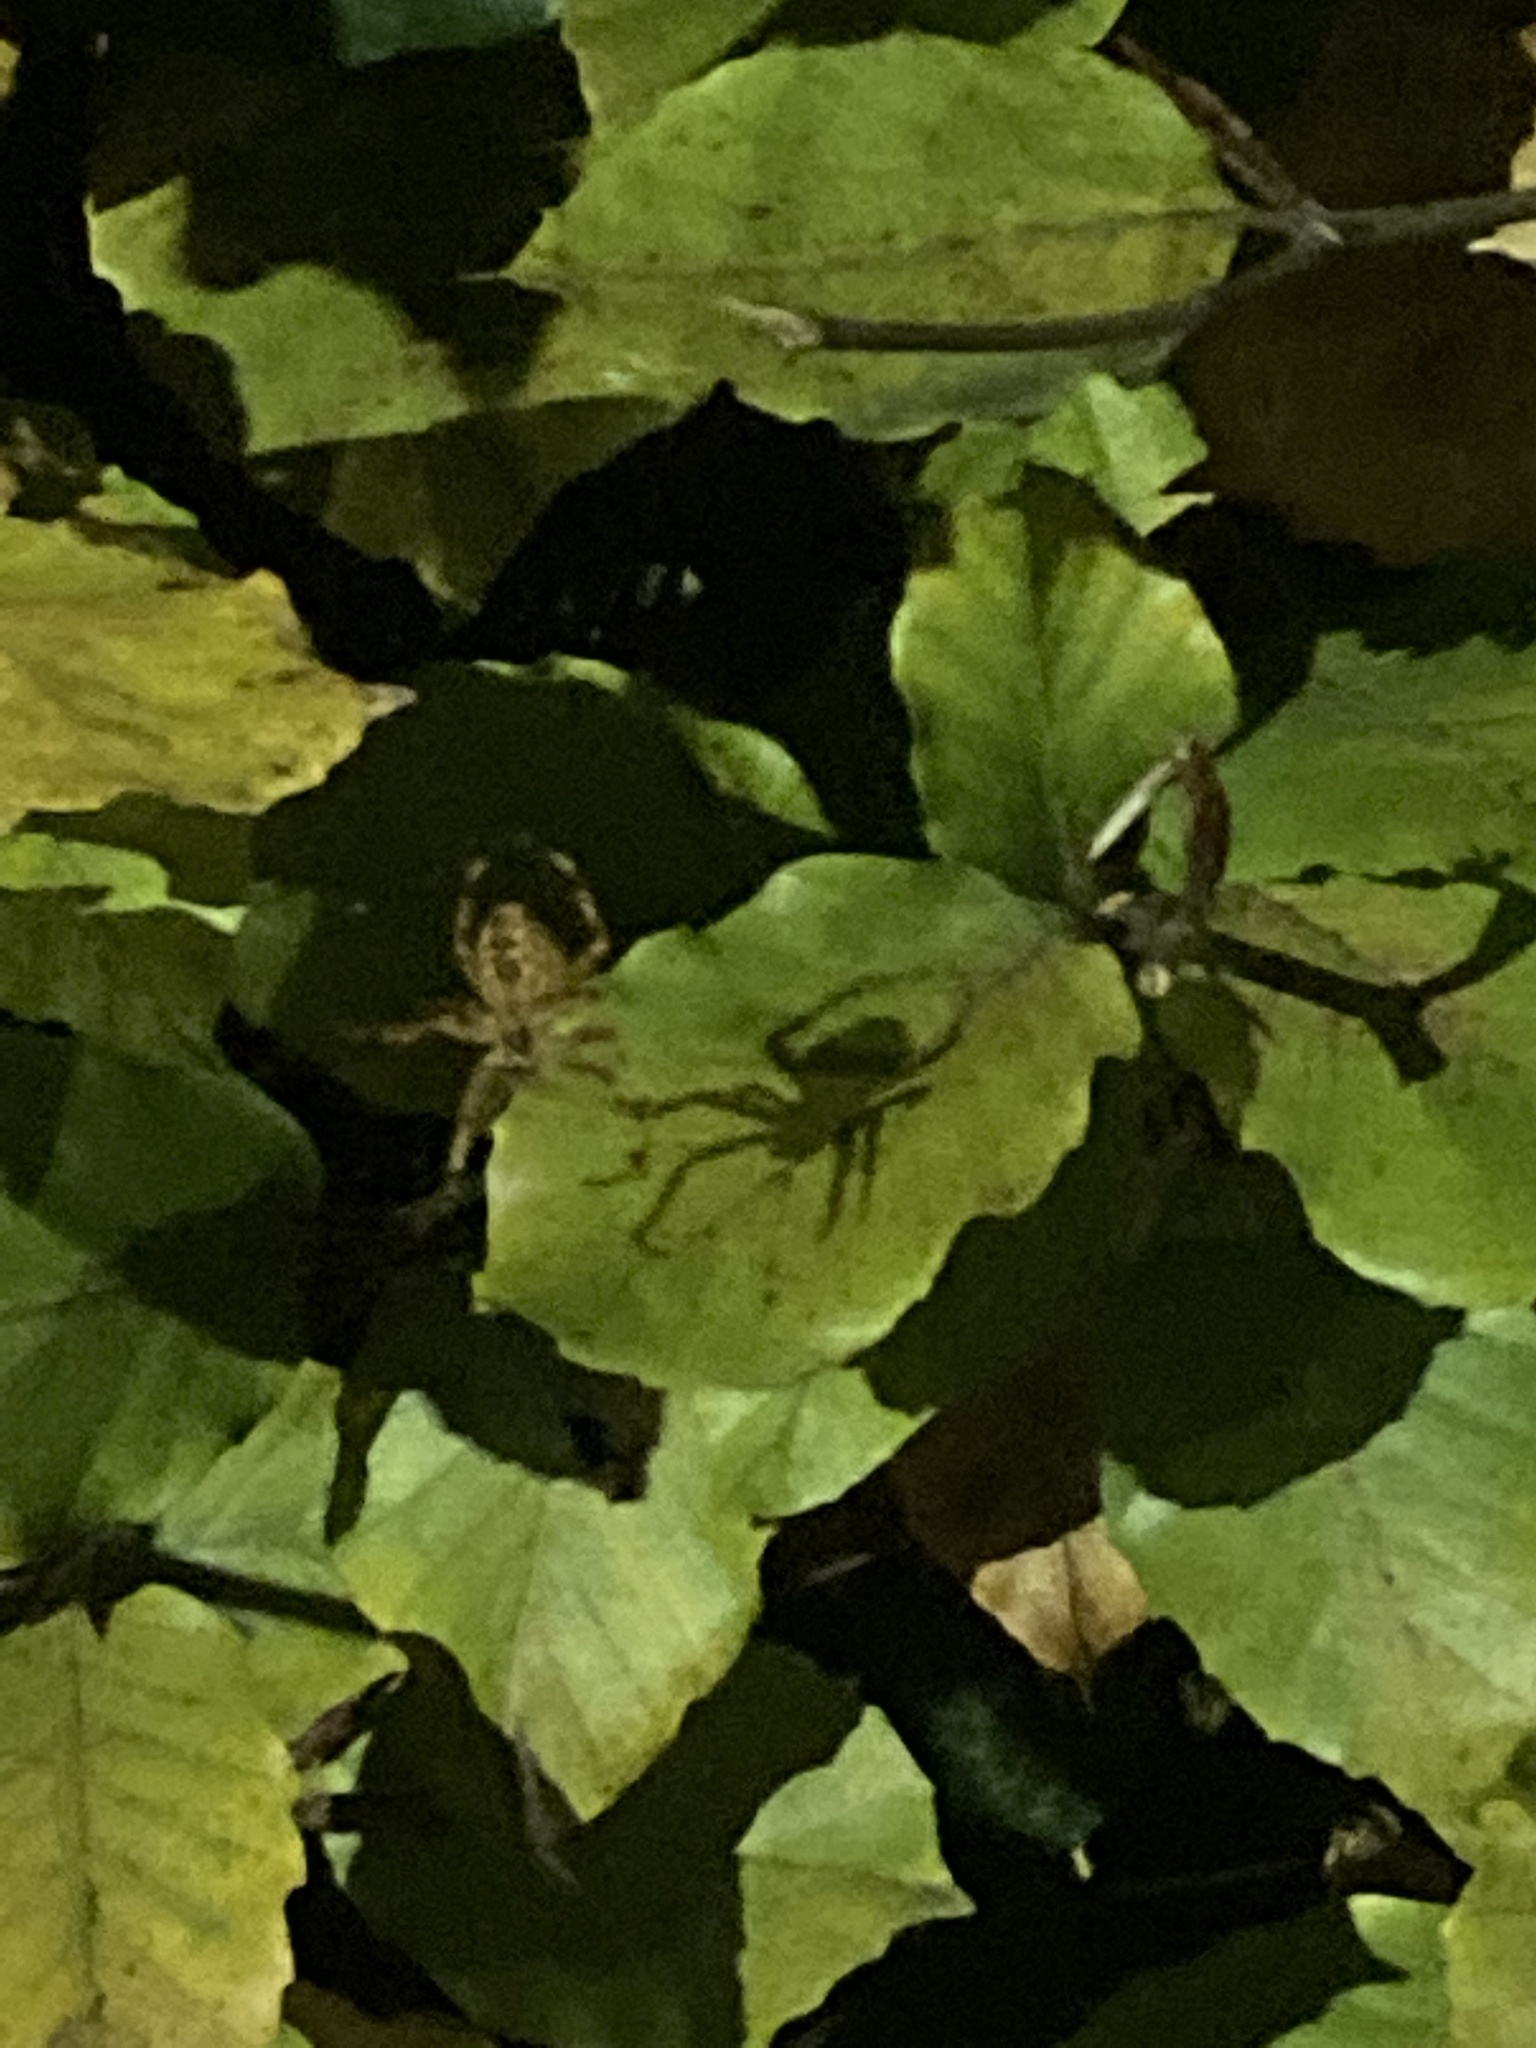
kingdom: Animalia
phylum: Arthropoda
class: Arachnida
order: Araneae
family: Araneidae
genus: Araneus
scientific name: Araneus diadematus
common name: Cross orbweaver
